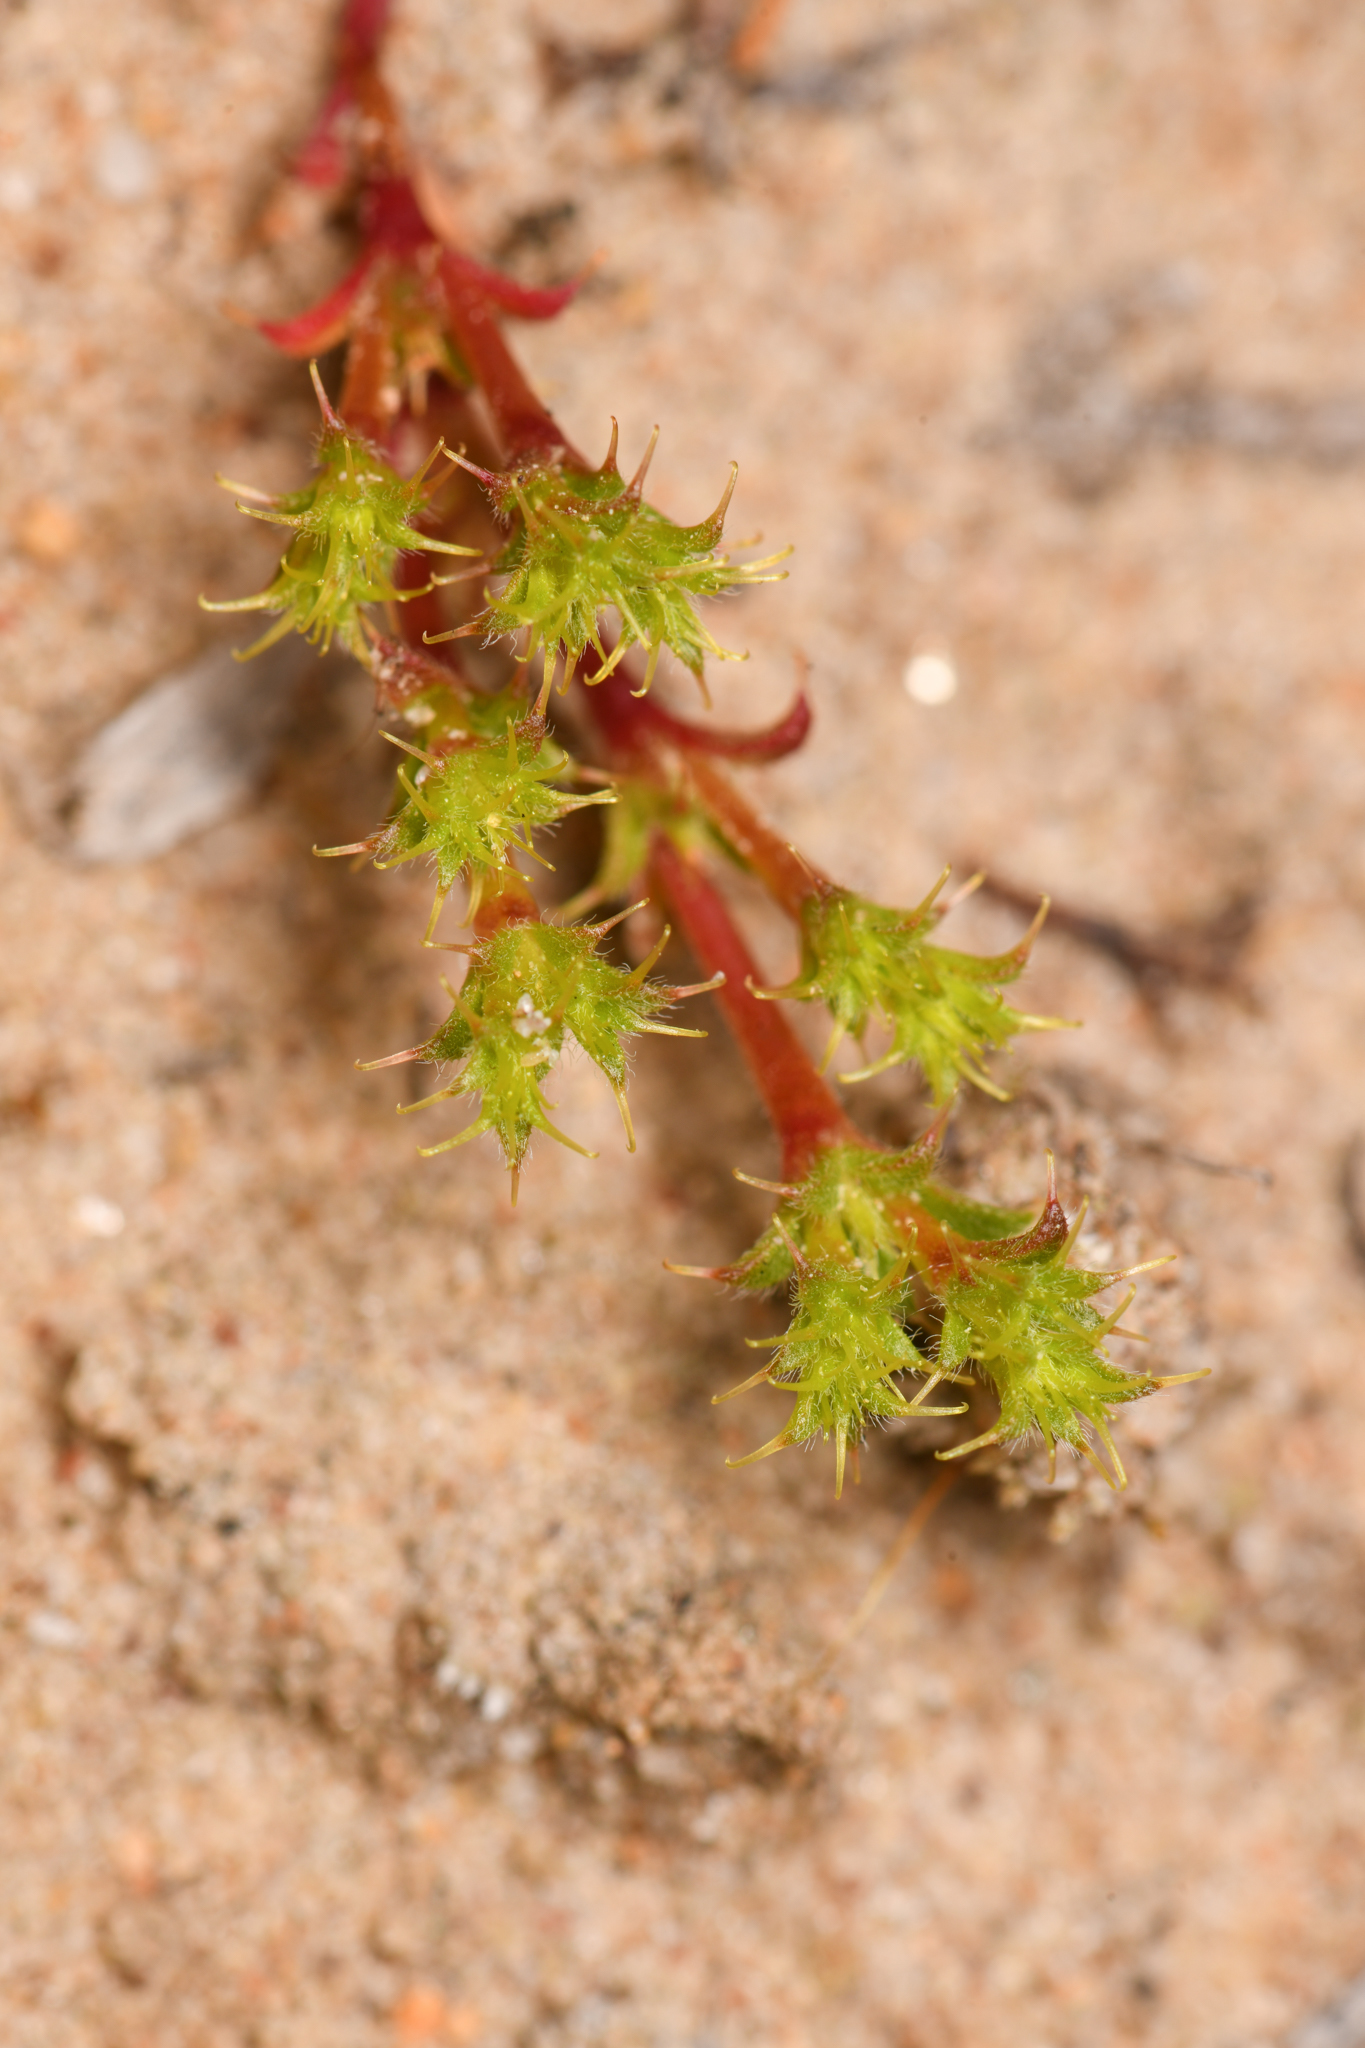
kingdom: Plantae
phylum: Tracheophyta
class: Magnoliopsida
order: Caryophyllales
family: Polygonaceae
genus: Lastarriaea
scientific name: Lastarriaea coriacea
